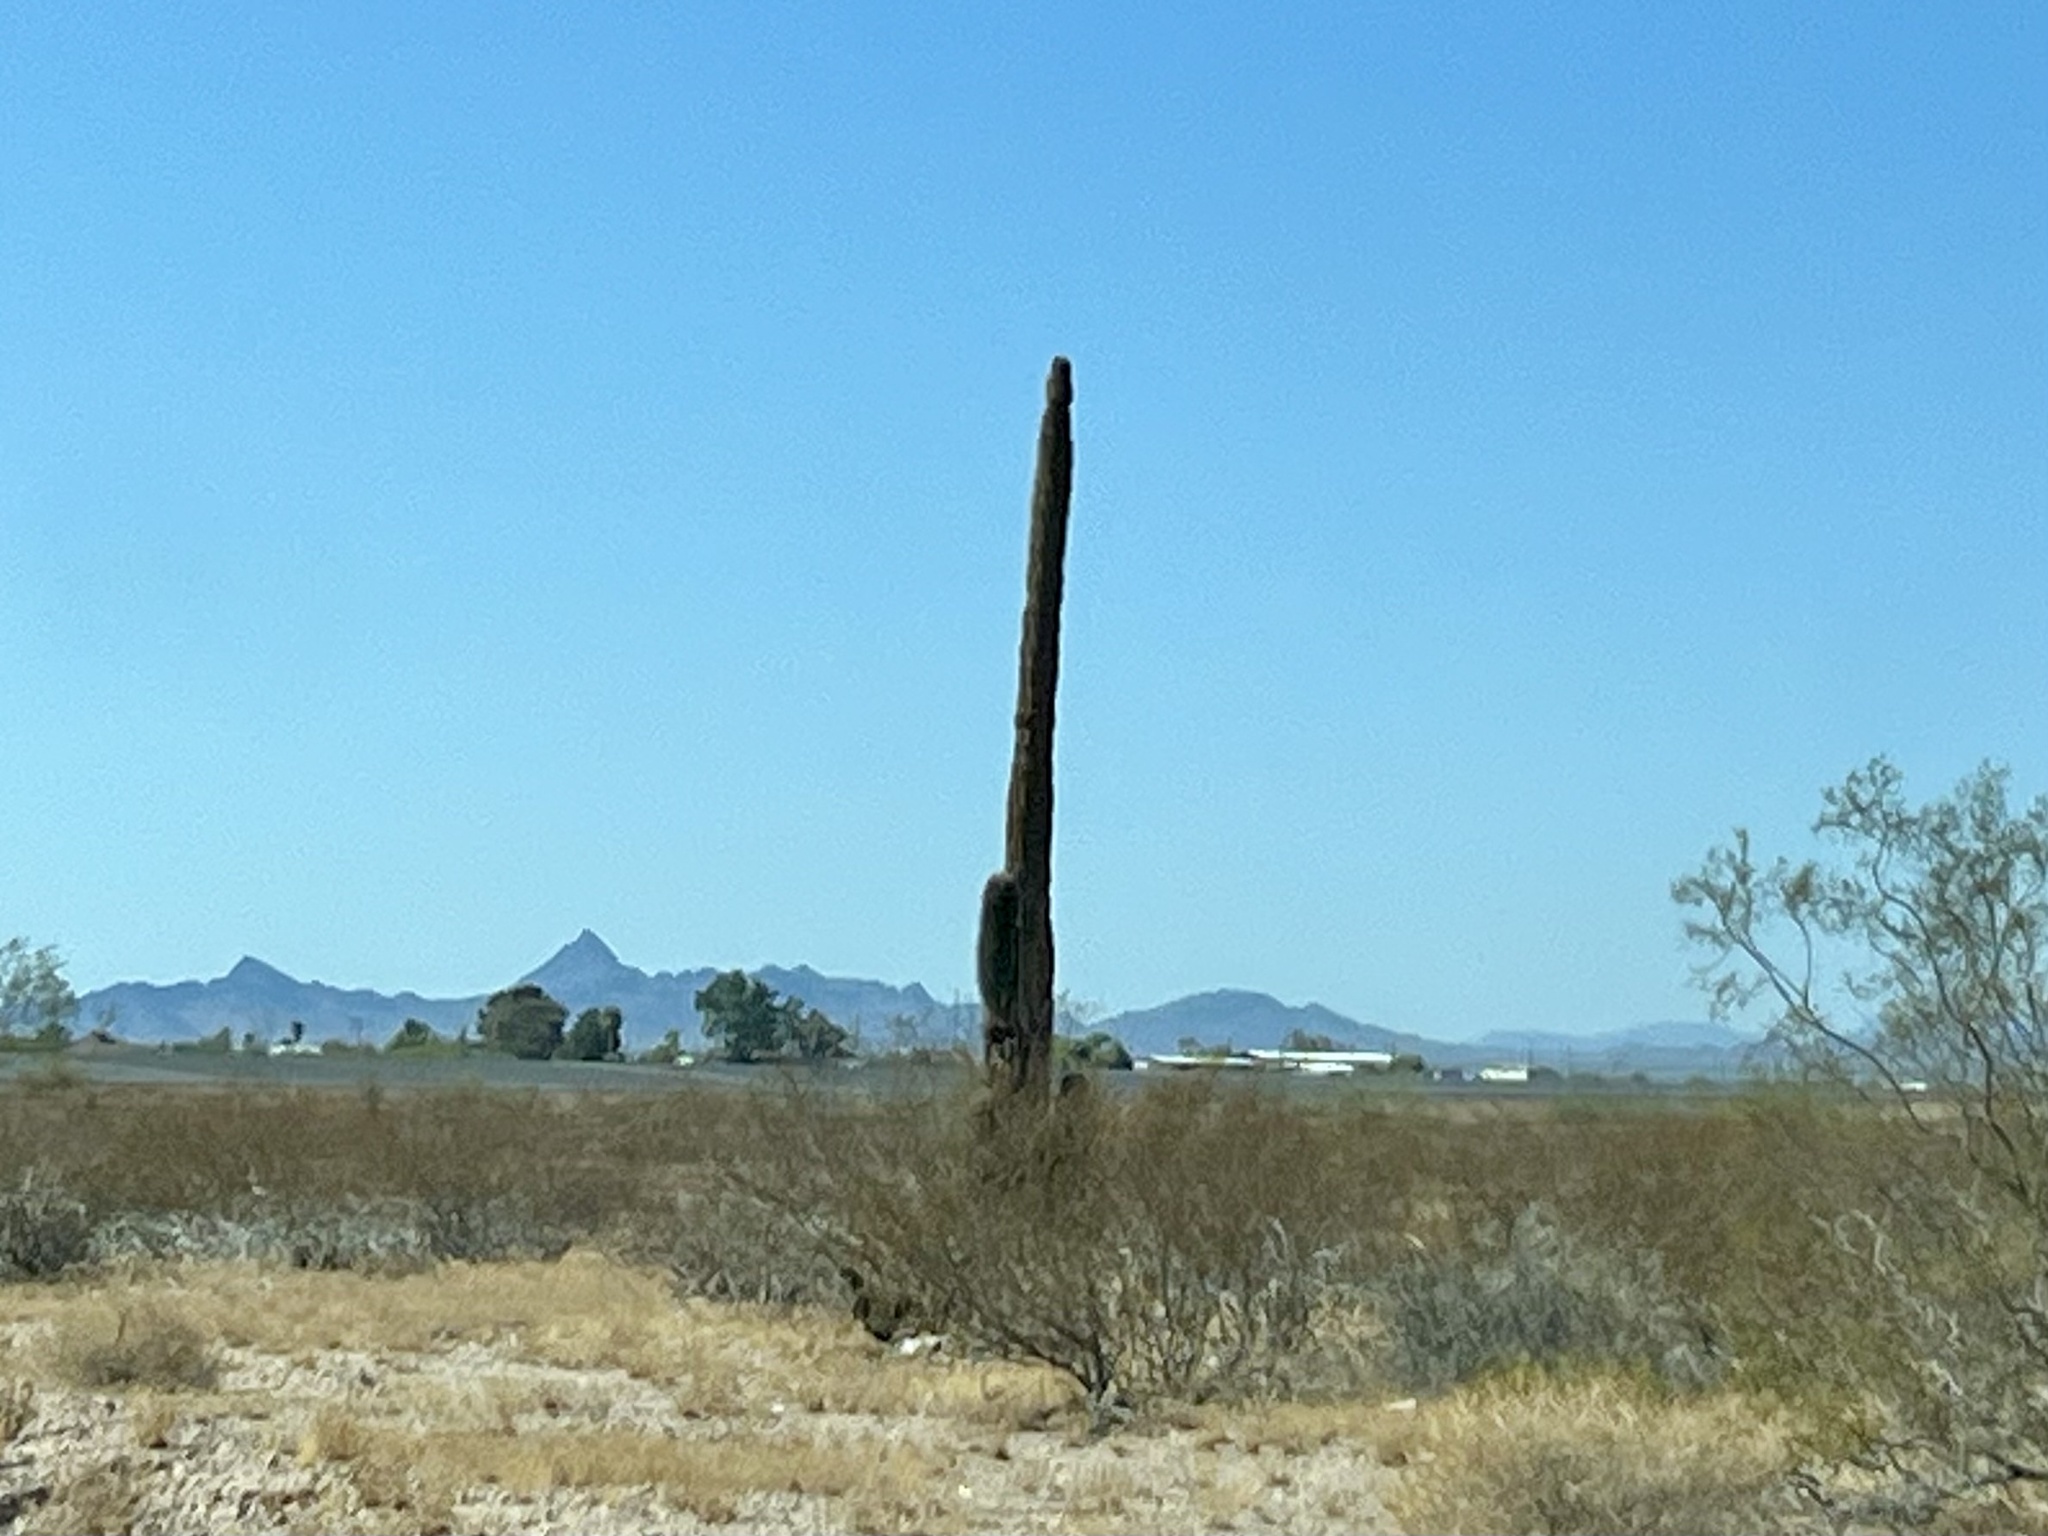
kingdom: Plantae
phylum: Tracheophyta
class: Magnoliopsida
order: Caryophyllales
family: Cactaceae
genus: Carnegiea
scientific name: Carnegiea gigantea
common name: Saguaro
